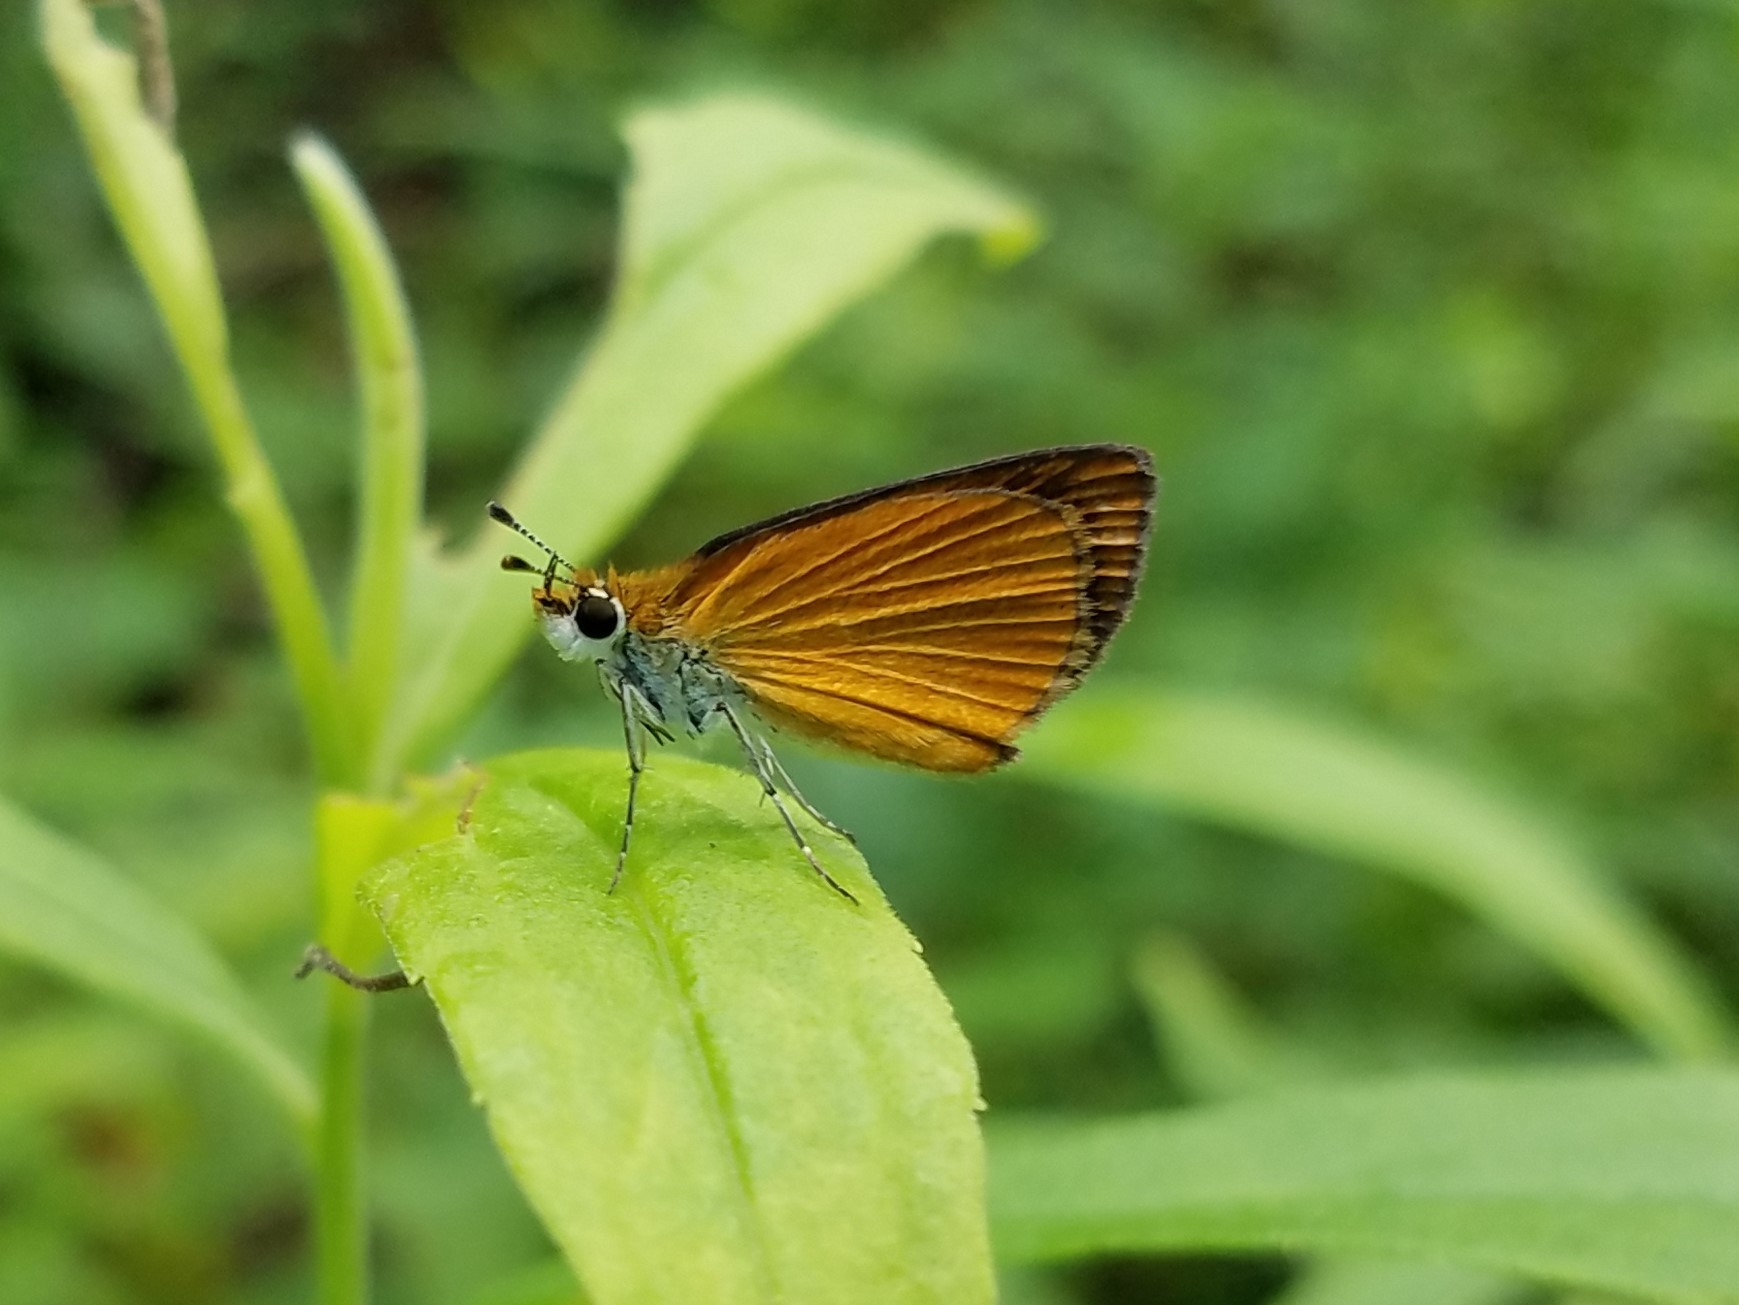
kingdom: Animalia
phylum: Arthropoda
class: Insecta
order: Lepidoptera
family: Hesperiidae
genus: Ancyloxypha
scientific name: Ancyloxypha numitor
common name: Least skipper
